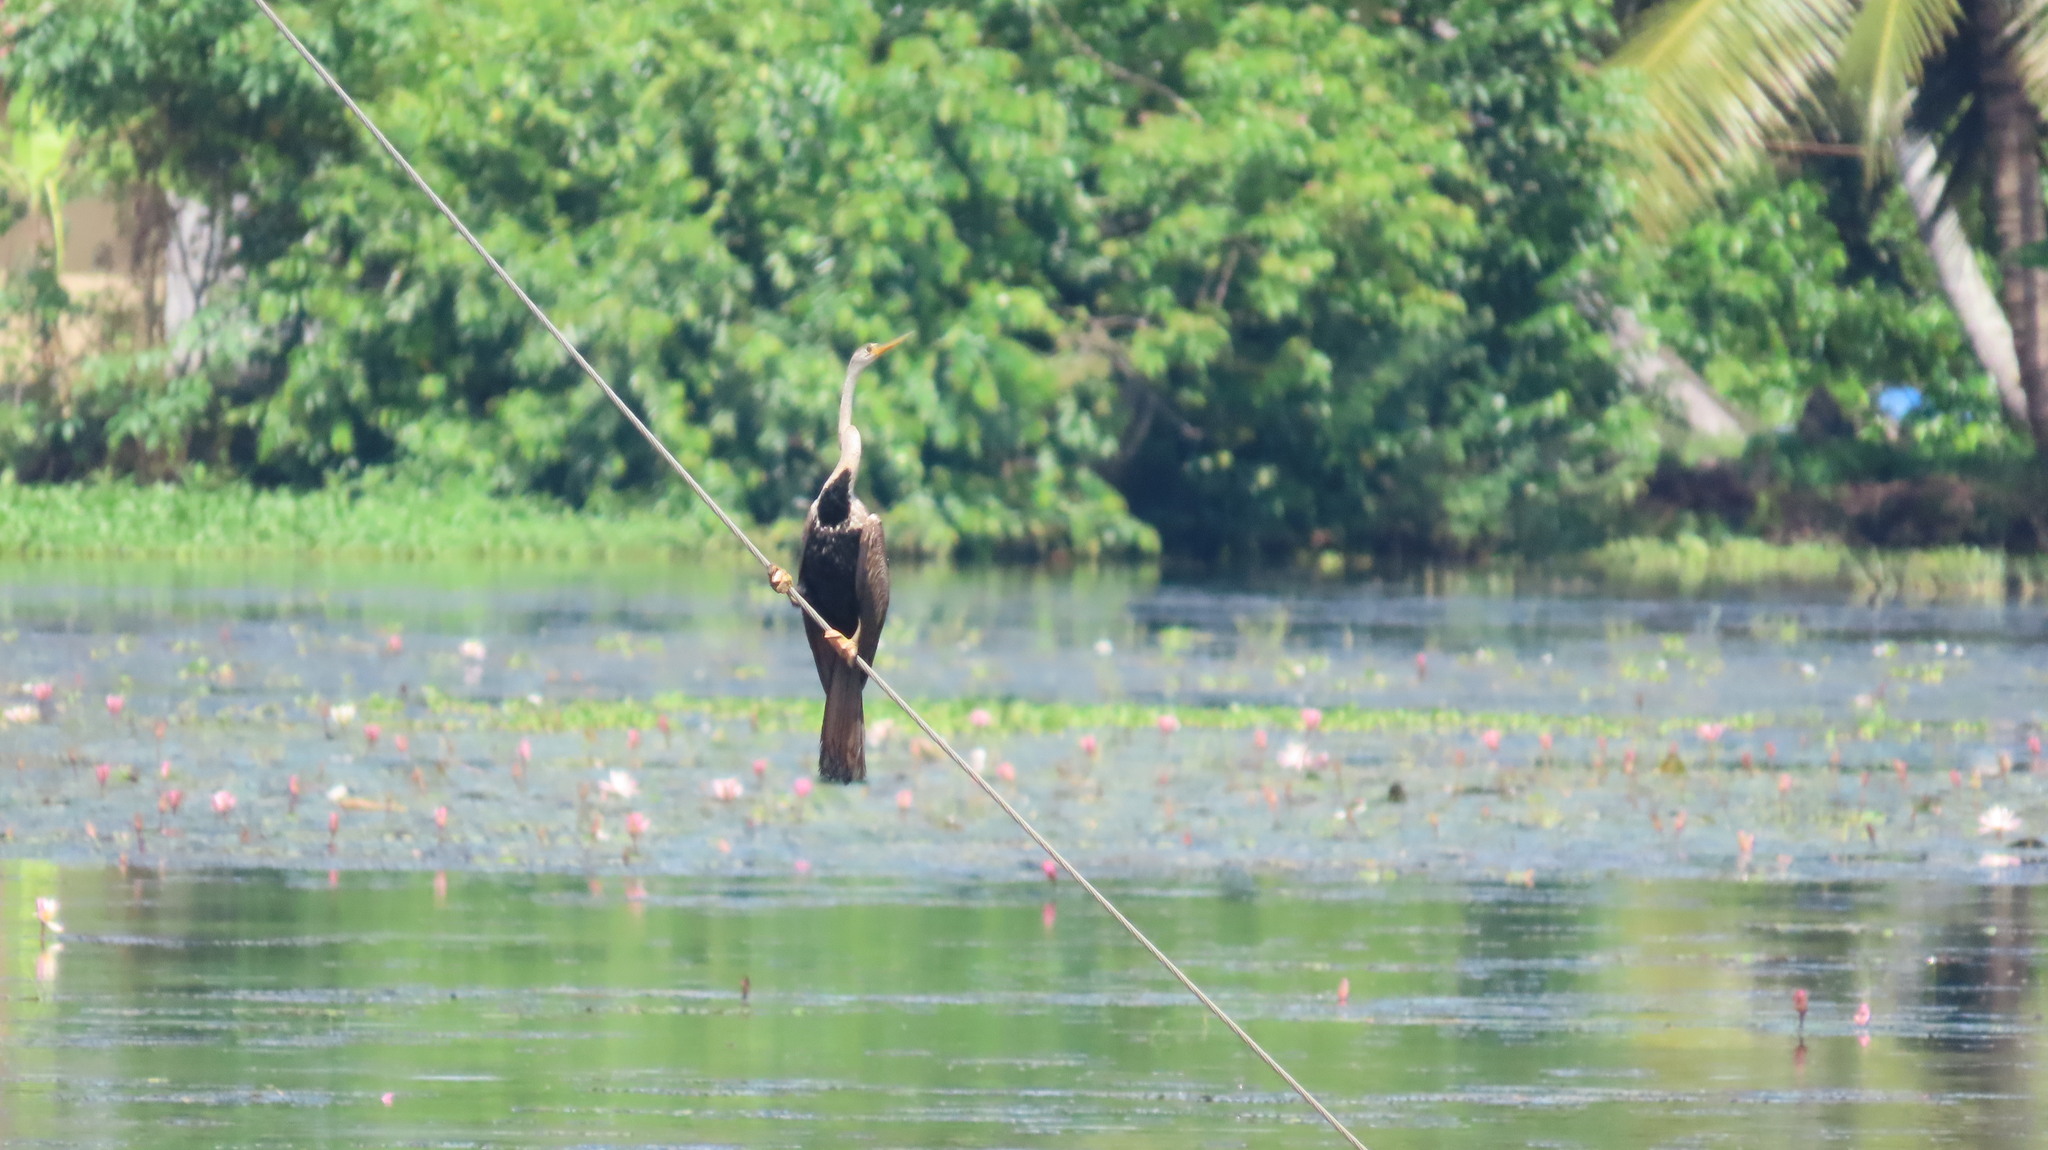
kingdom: Animalia
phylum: Chordata
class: Aves
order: Suliformes
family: Anhingidae
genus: Anhinga
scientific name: Anhinga melanogaster
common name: Oriental darter
